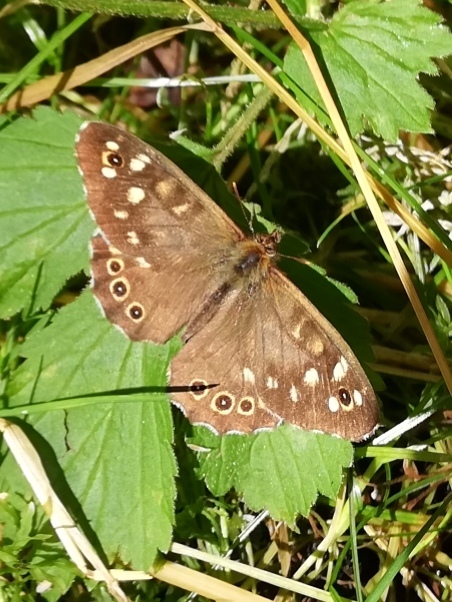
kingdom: Animalia
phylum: Arthropoda
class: Insecta
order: Lepidoptera
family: Nymphalidae
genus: Pararge
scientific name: Pararge aegeria
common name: Speckled wood
